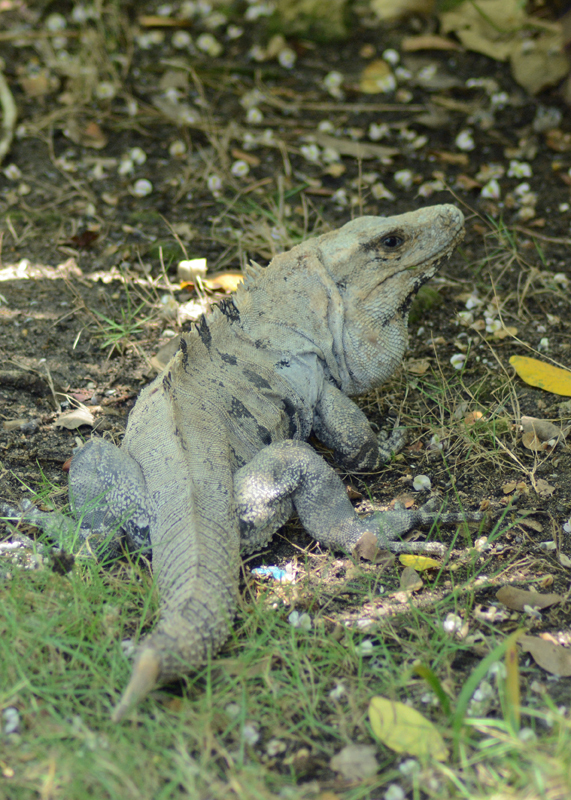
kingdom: Animalia
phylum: Chordata
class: Squamata
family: Iguanidae
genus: Ctenosaura
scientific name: Ctenosaura similis
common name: Black spiny-tailed iguana
